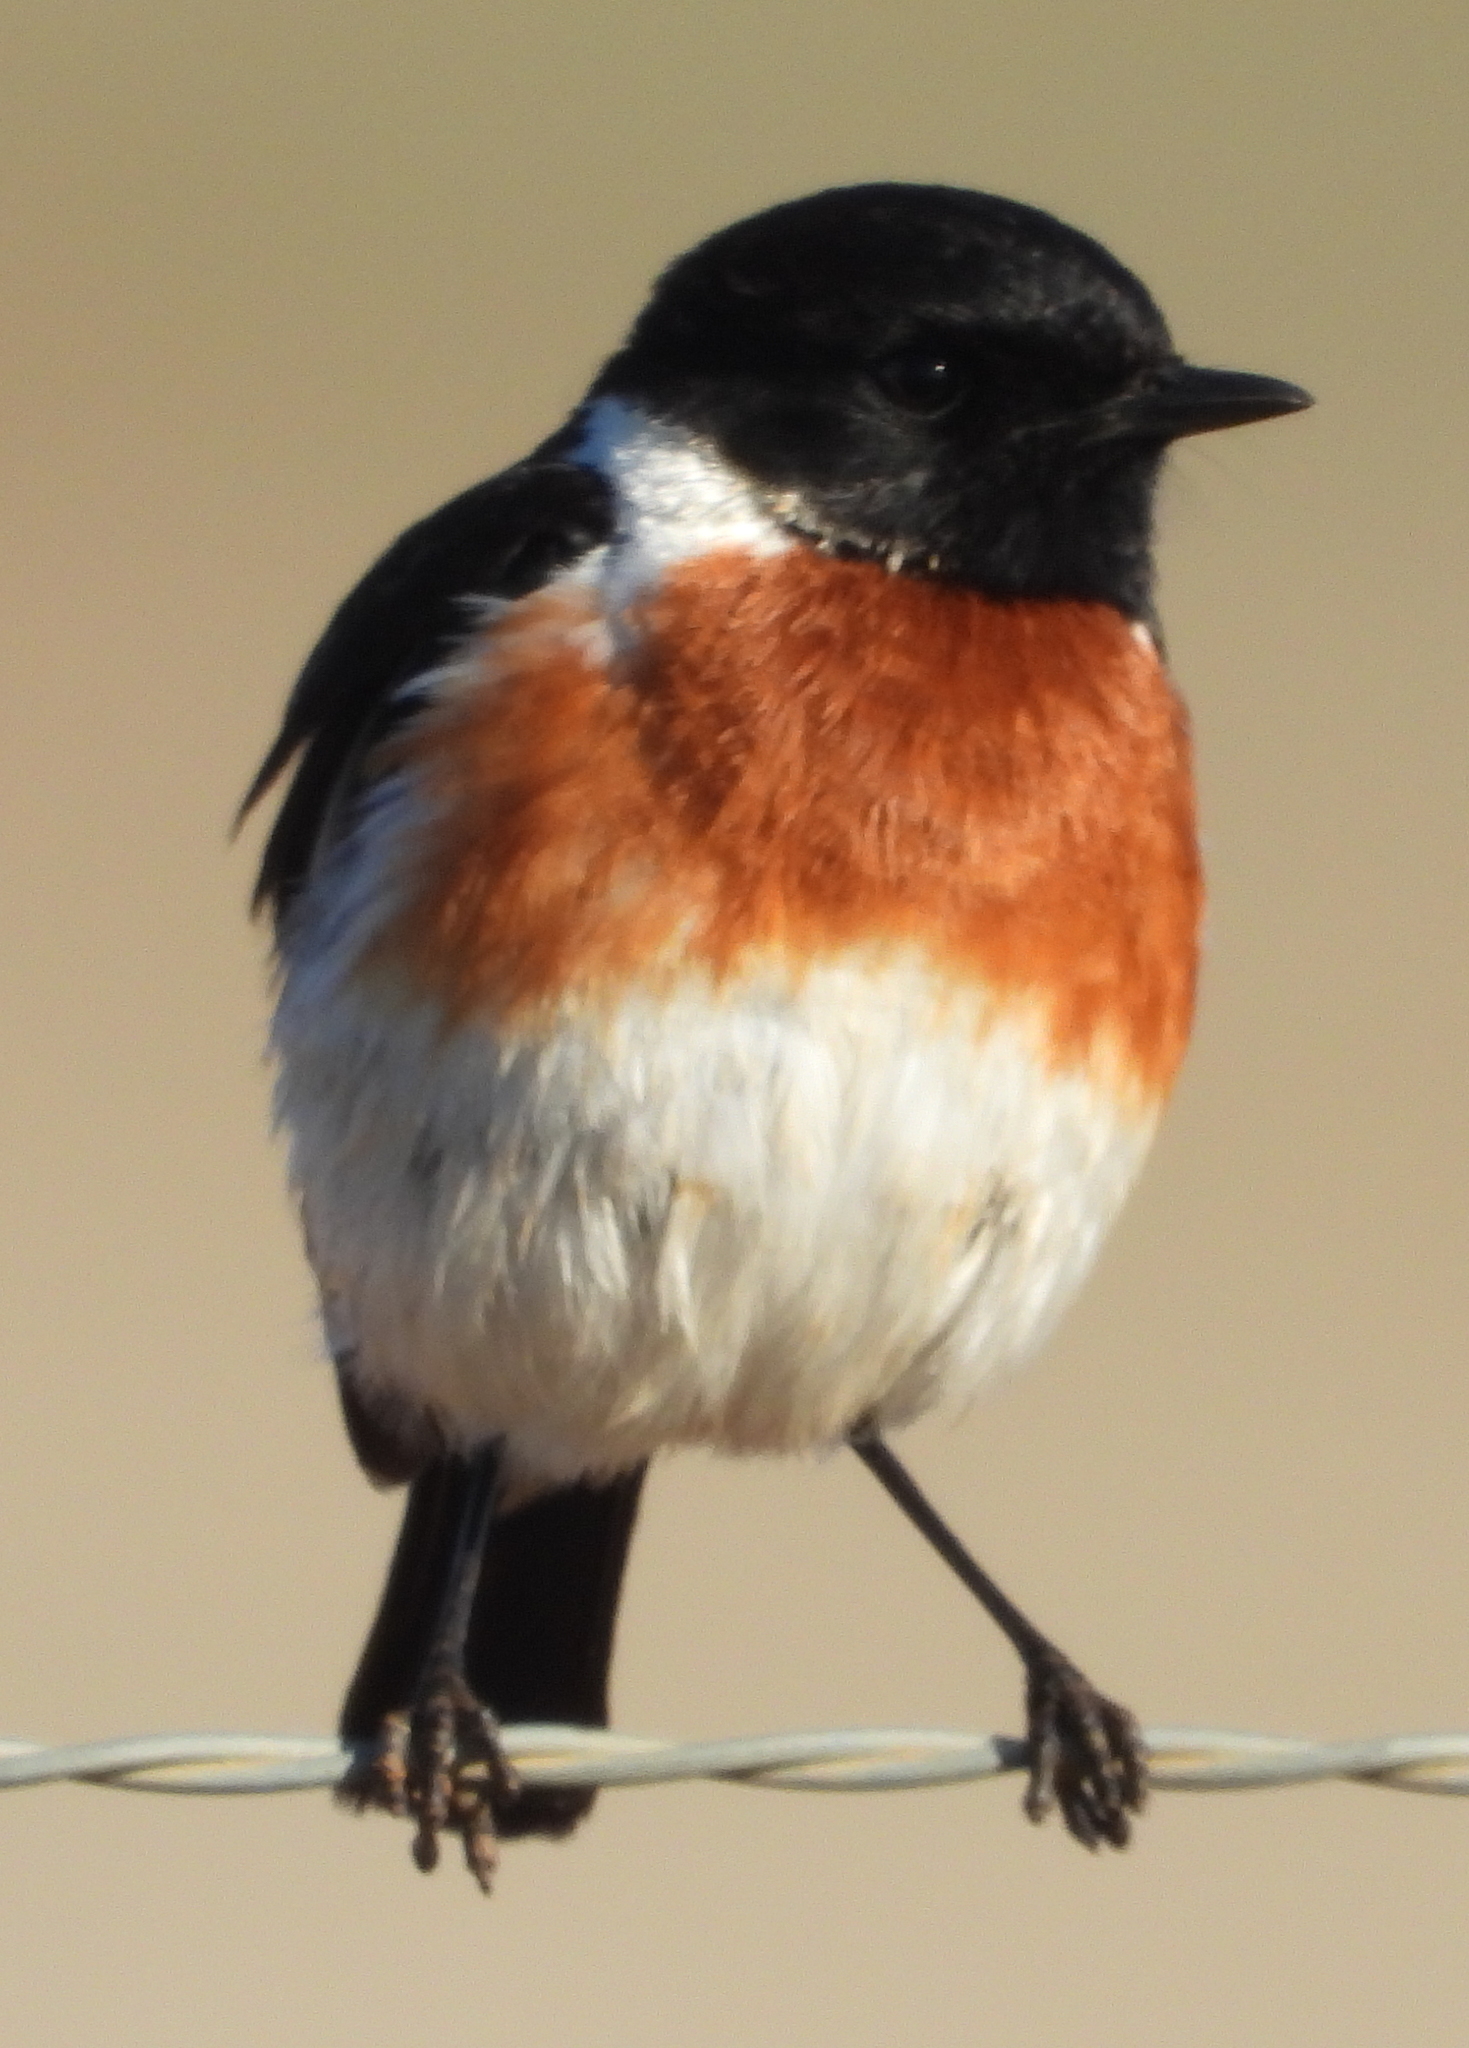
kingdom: Animalia
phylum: Chordata
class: Aves
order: Passeriformes
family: Muscicapidae
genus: Saxicola
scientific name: Saxicola torquatus
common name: African stonechat
